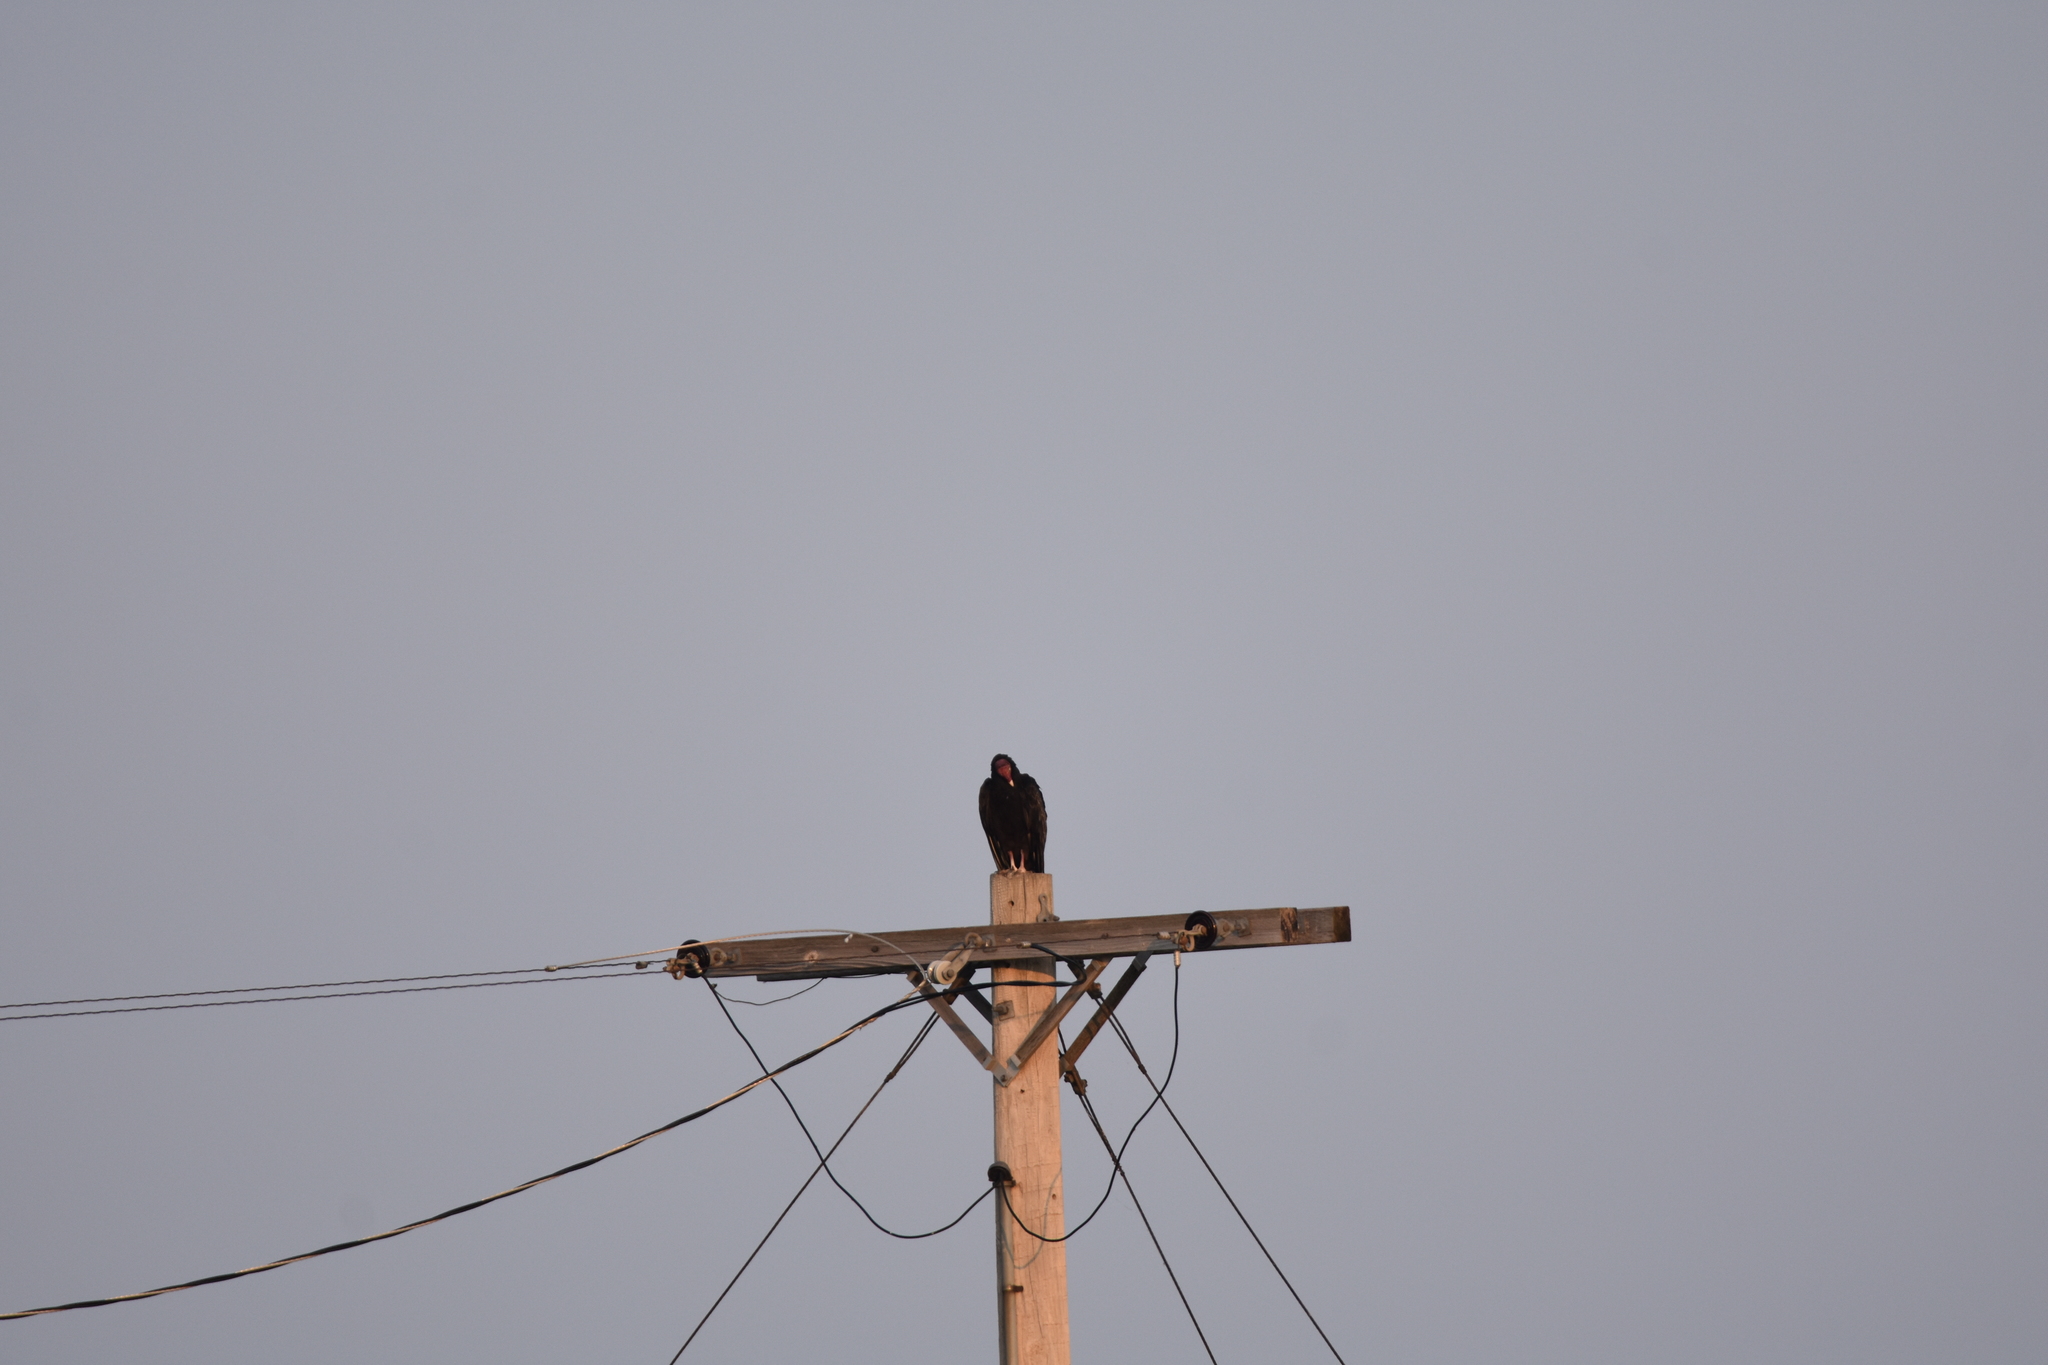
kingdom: Animalia
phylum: Chordata
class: Aves
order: Accipitriformes
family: Cathartidae
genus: Cathartes
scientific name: Cathartes aura
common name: Turkey vulture
